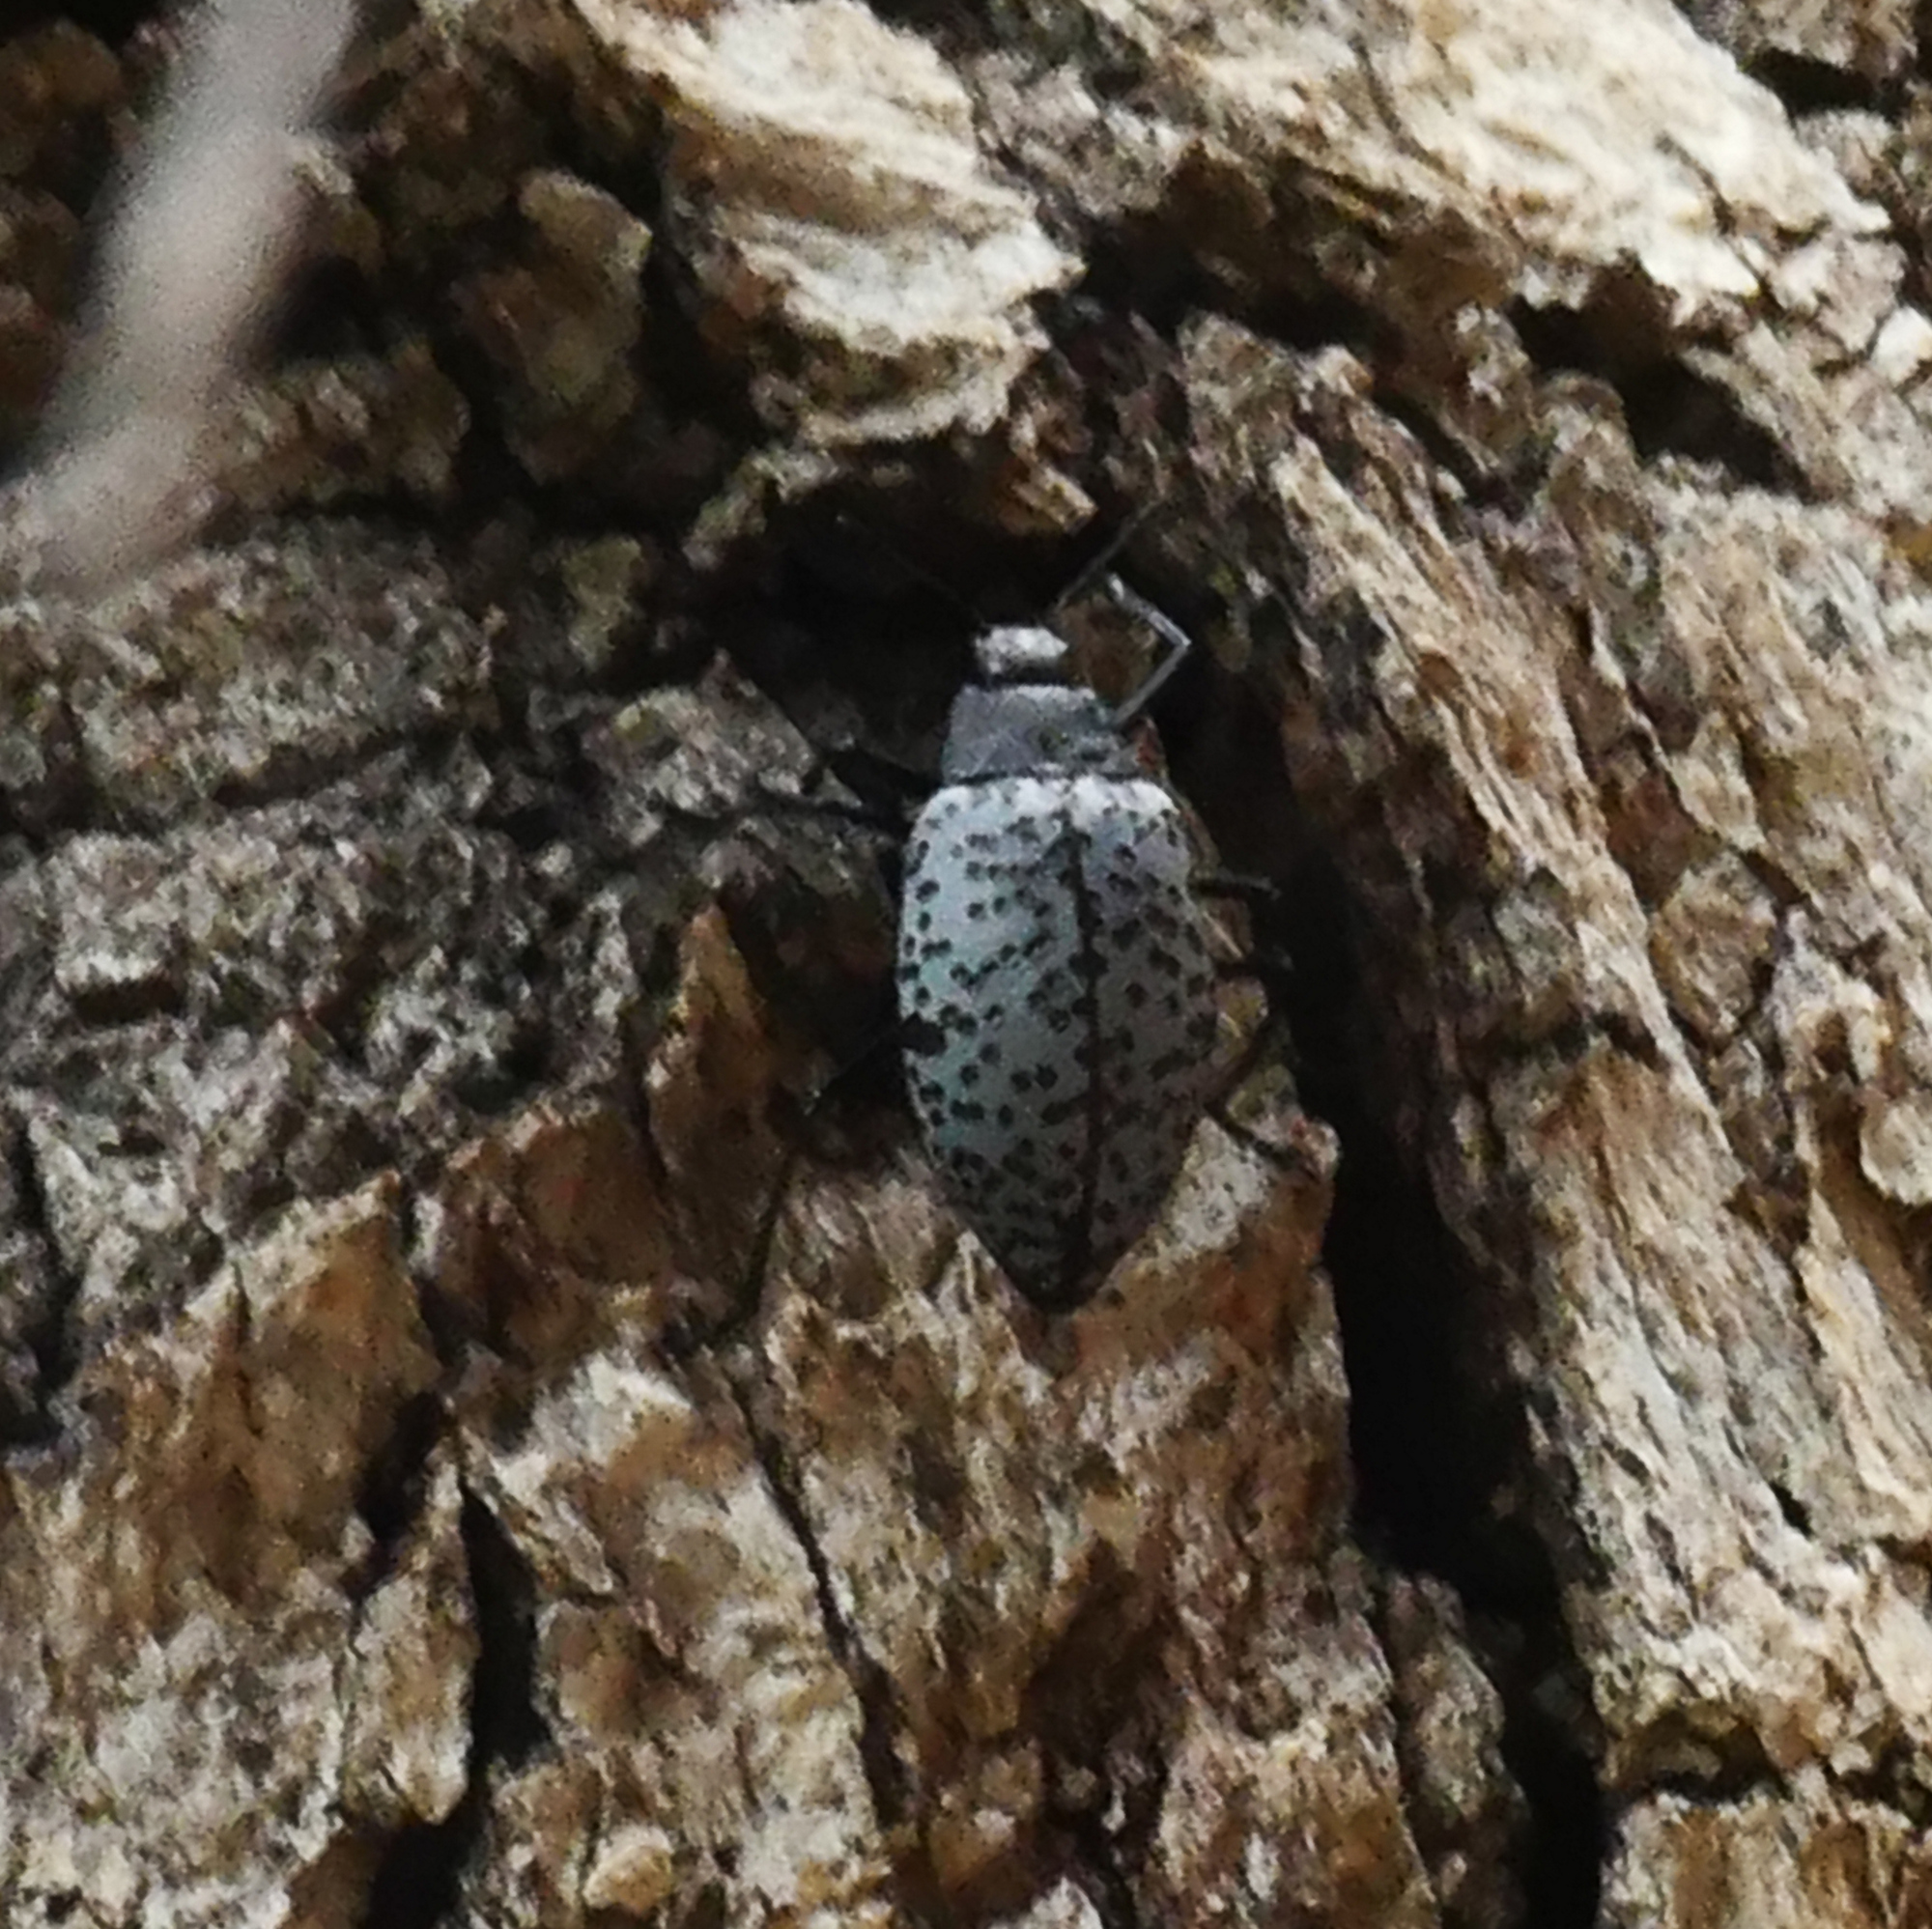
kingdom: Animalia
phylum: Arthropoda
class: Insecta
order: Coleoptera
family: Erotylidae
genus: Gibbifer
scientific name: Gibbifer californicus
